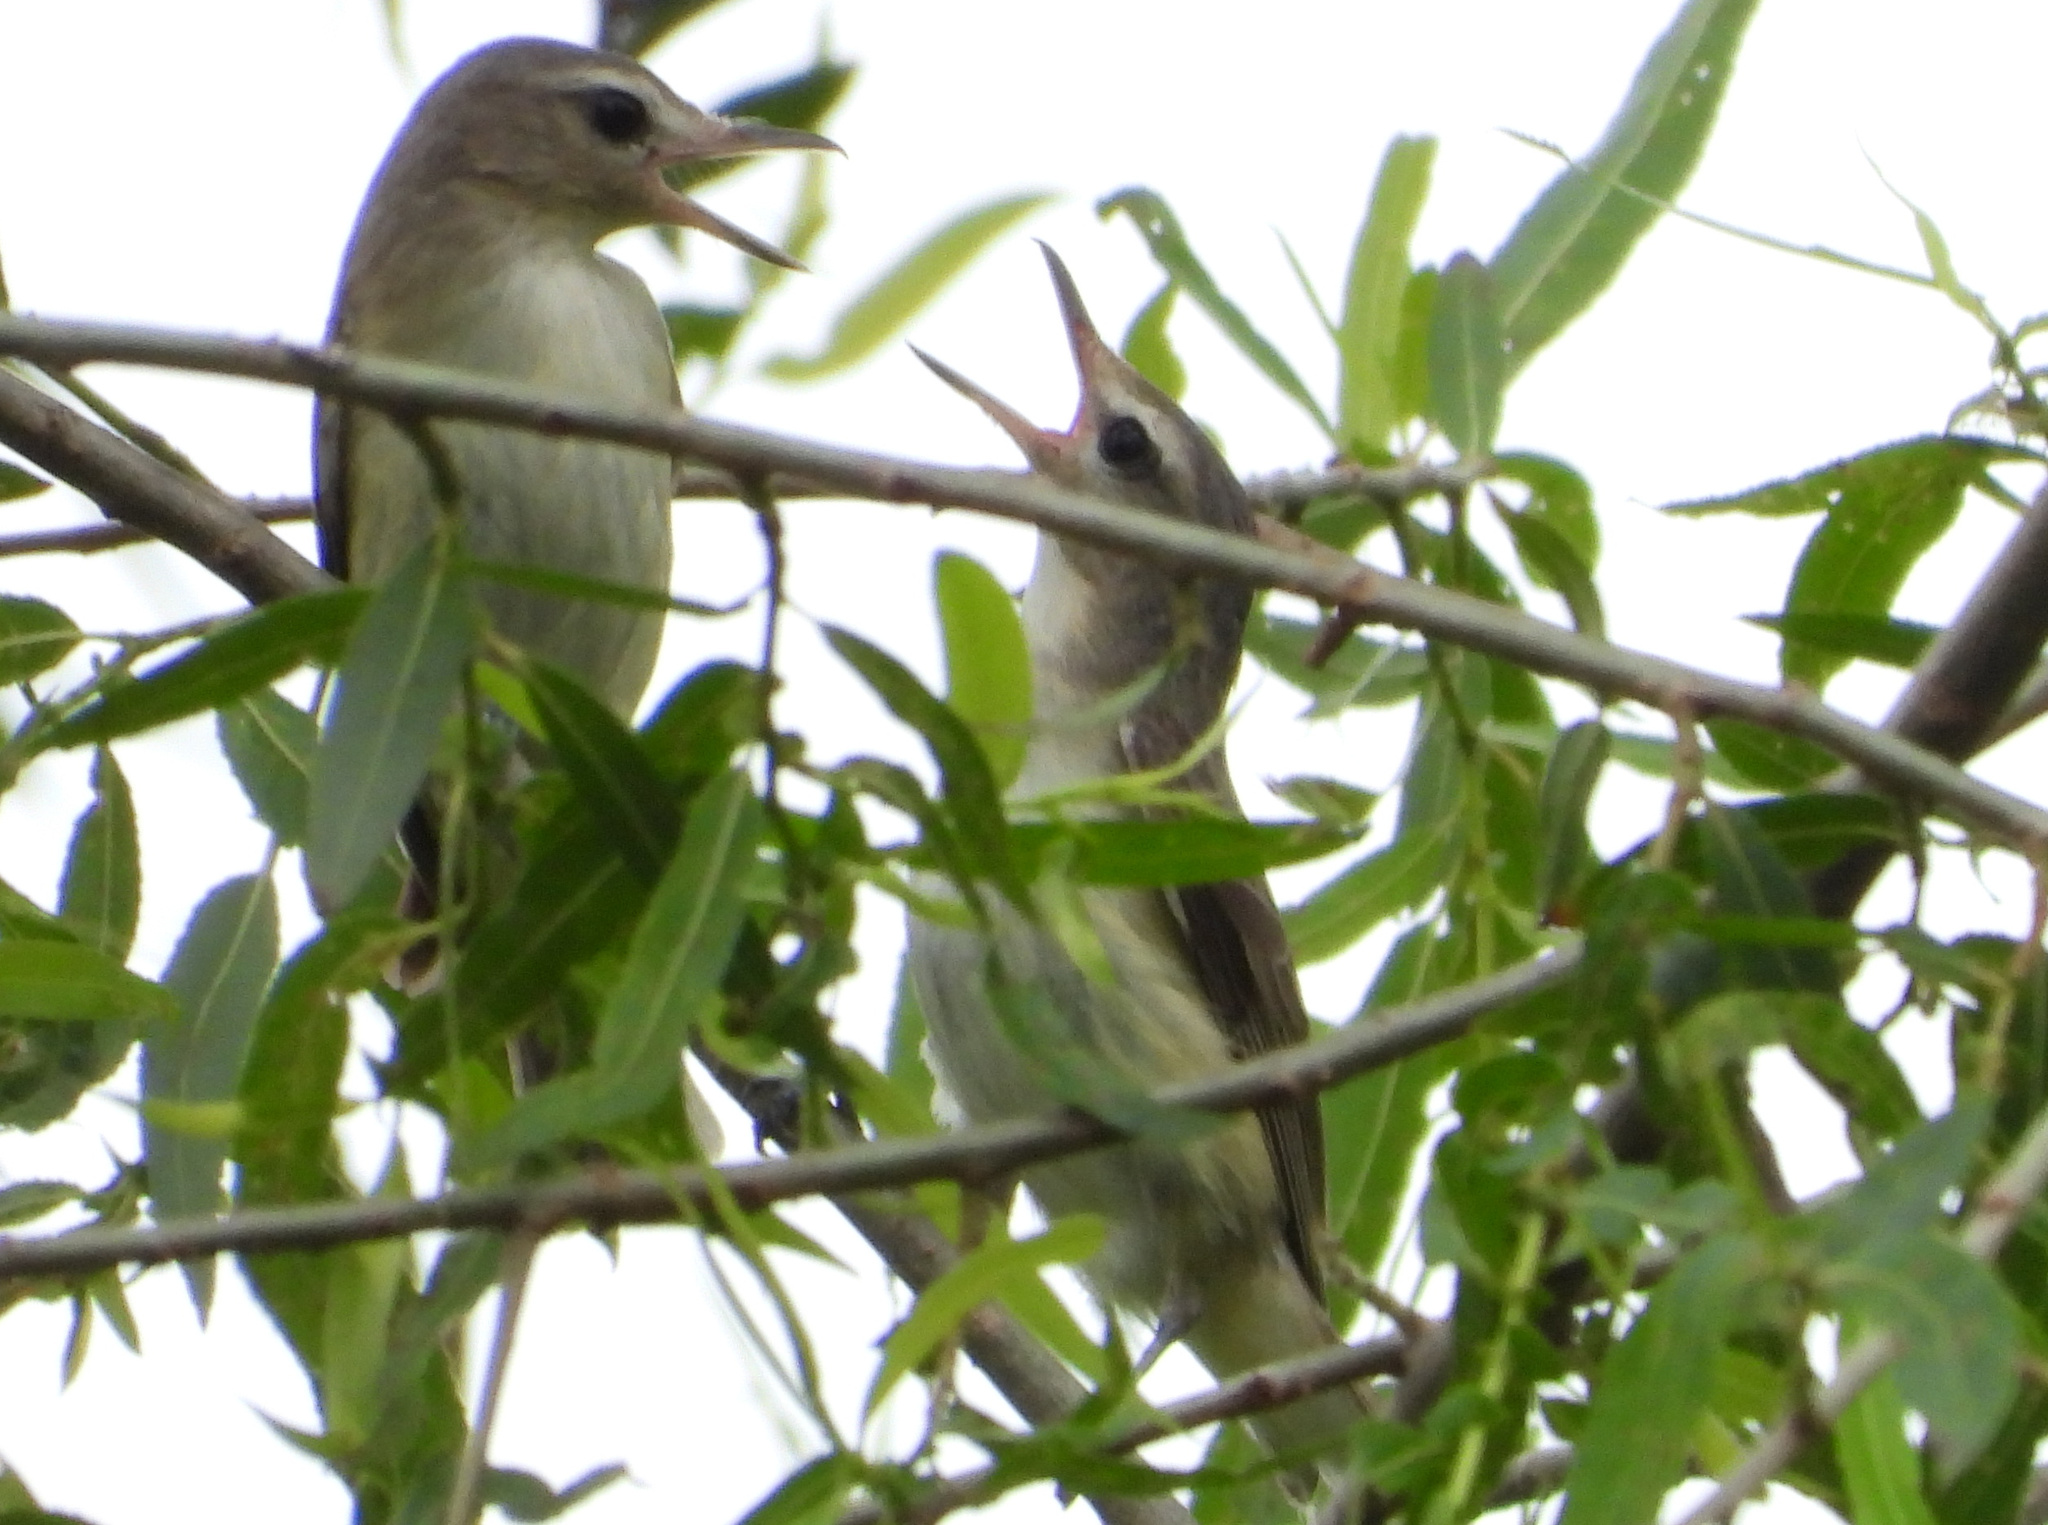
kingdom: Animalia
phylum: Chordata
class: Aves
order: Passeriformes
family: Vireonidae
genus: Vireo
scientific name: Vireo gilvus
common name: Warbling vireo
